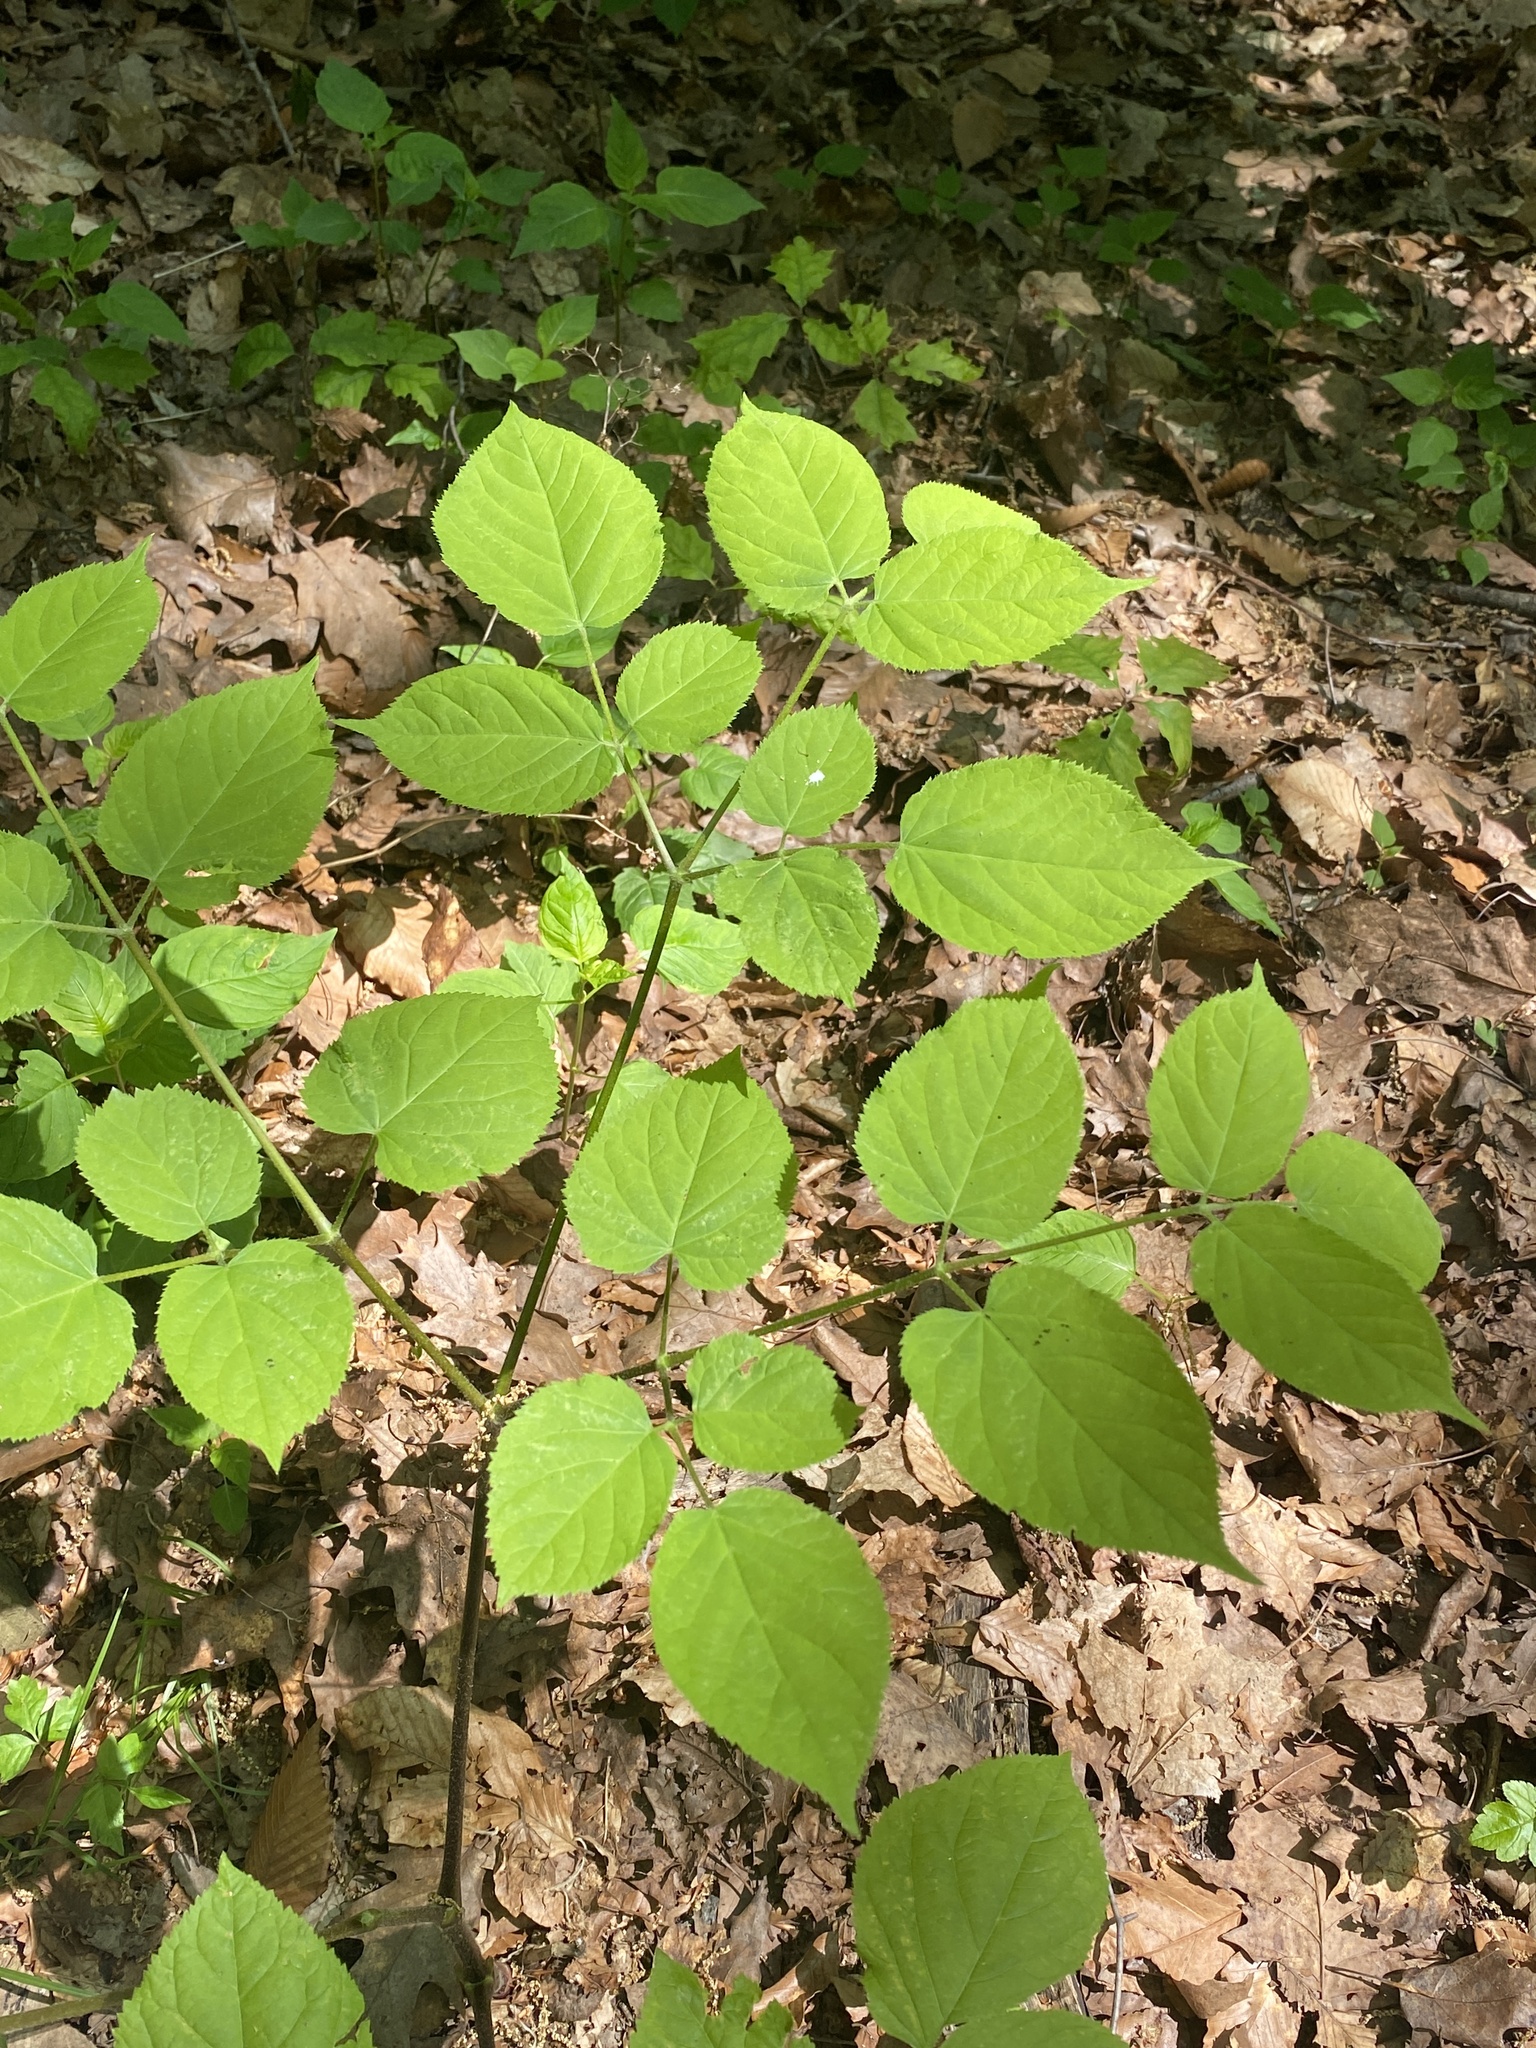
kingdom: Plantae
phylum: Tracheophyta
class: Magnoliopsida
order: Apiales
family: Araliaceae
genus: Aralia
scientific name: Aralia racemosa
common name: American-spikenard
